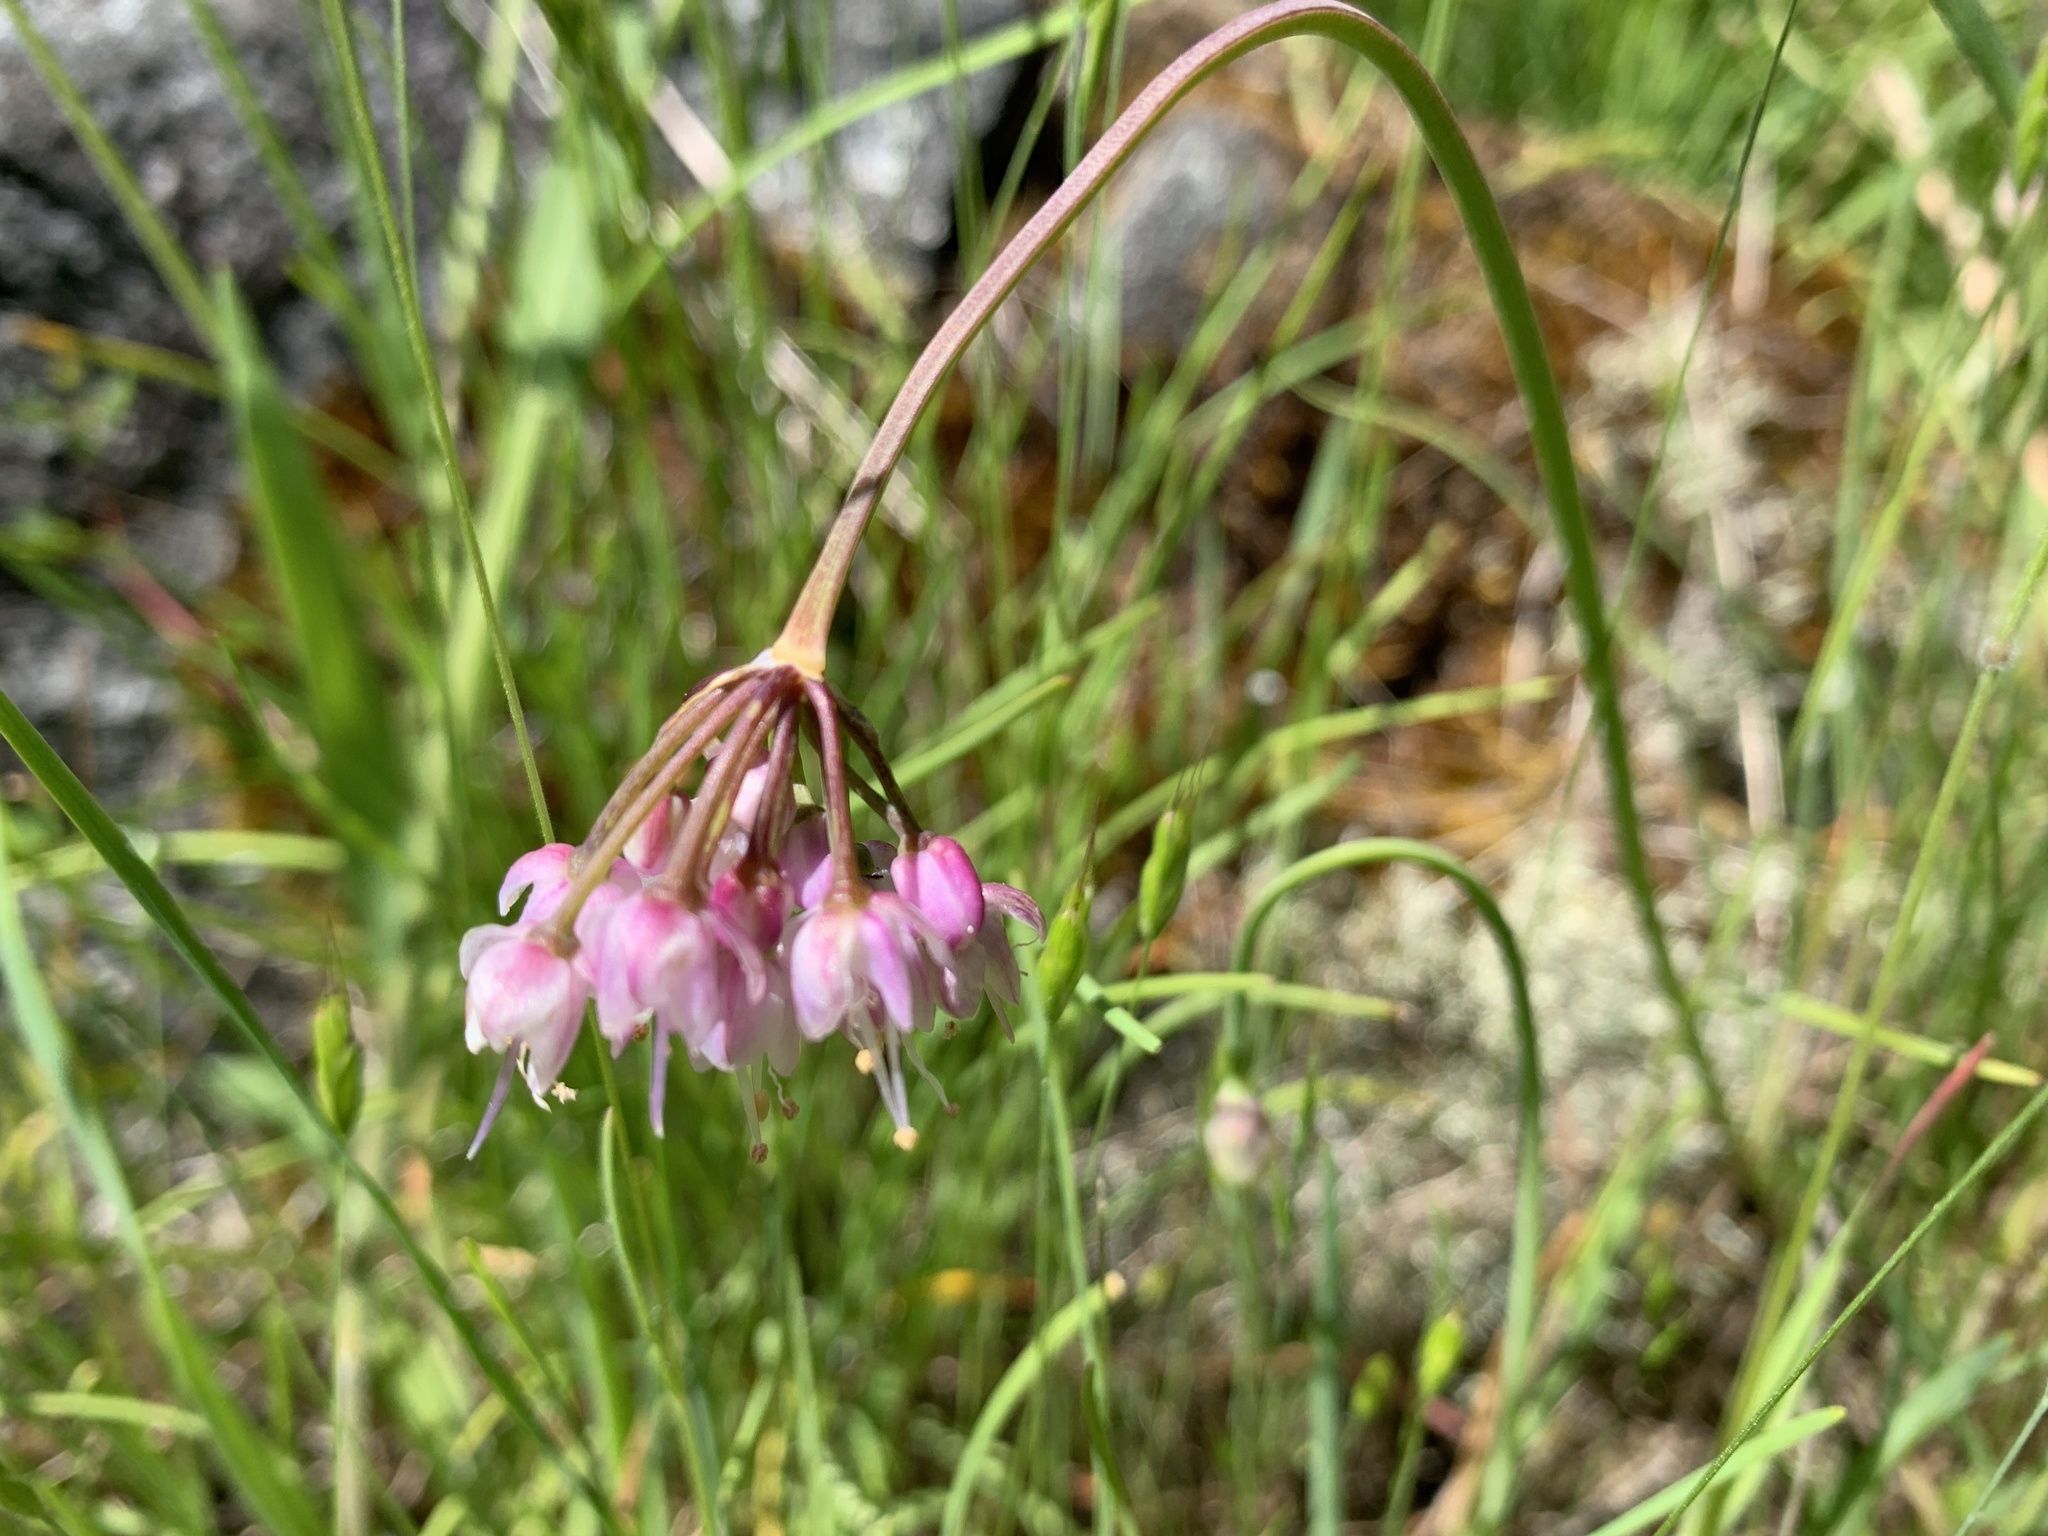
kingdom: Plantae
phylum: Tracheophyta
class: Liliopsida
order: Asparagales
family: Amaryllidaceae
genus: Allium
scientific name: Allium cernuum
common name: Nodding onion
